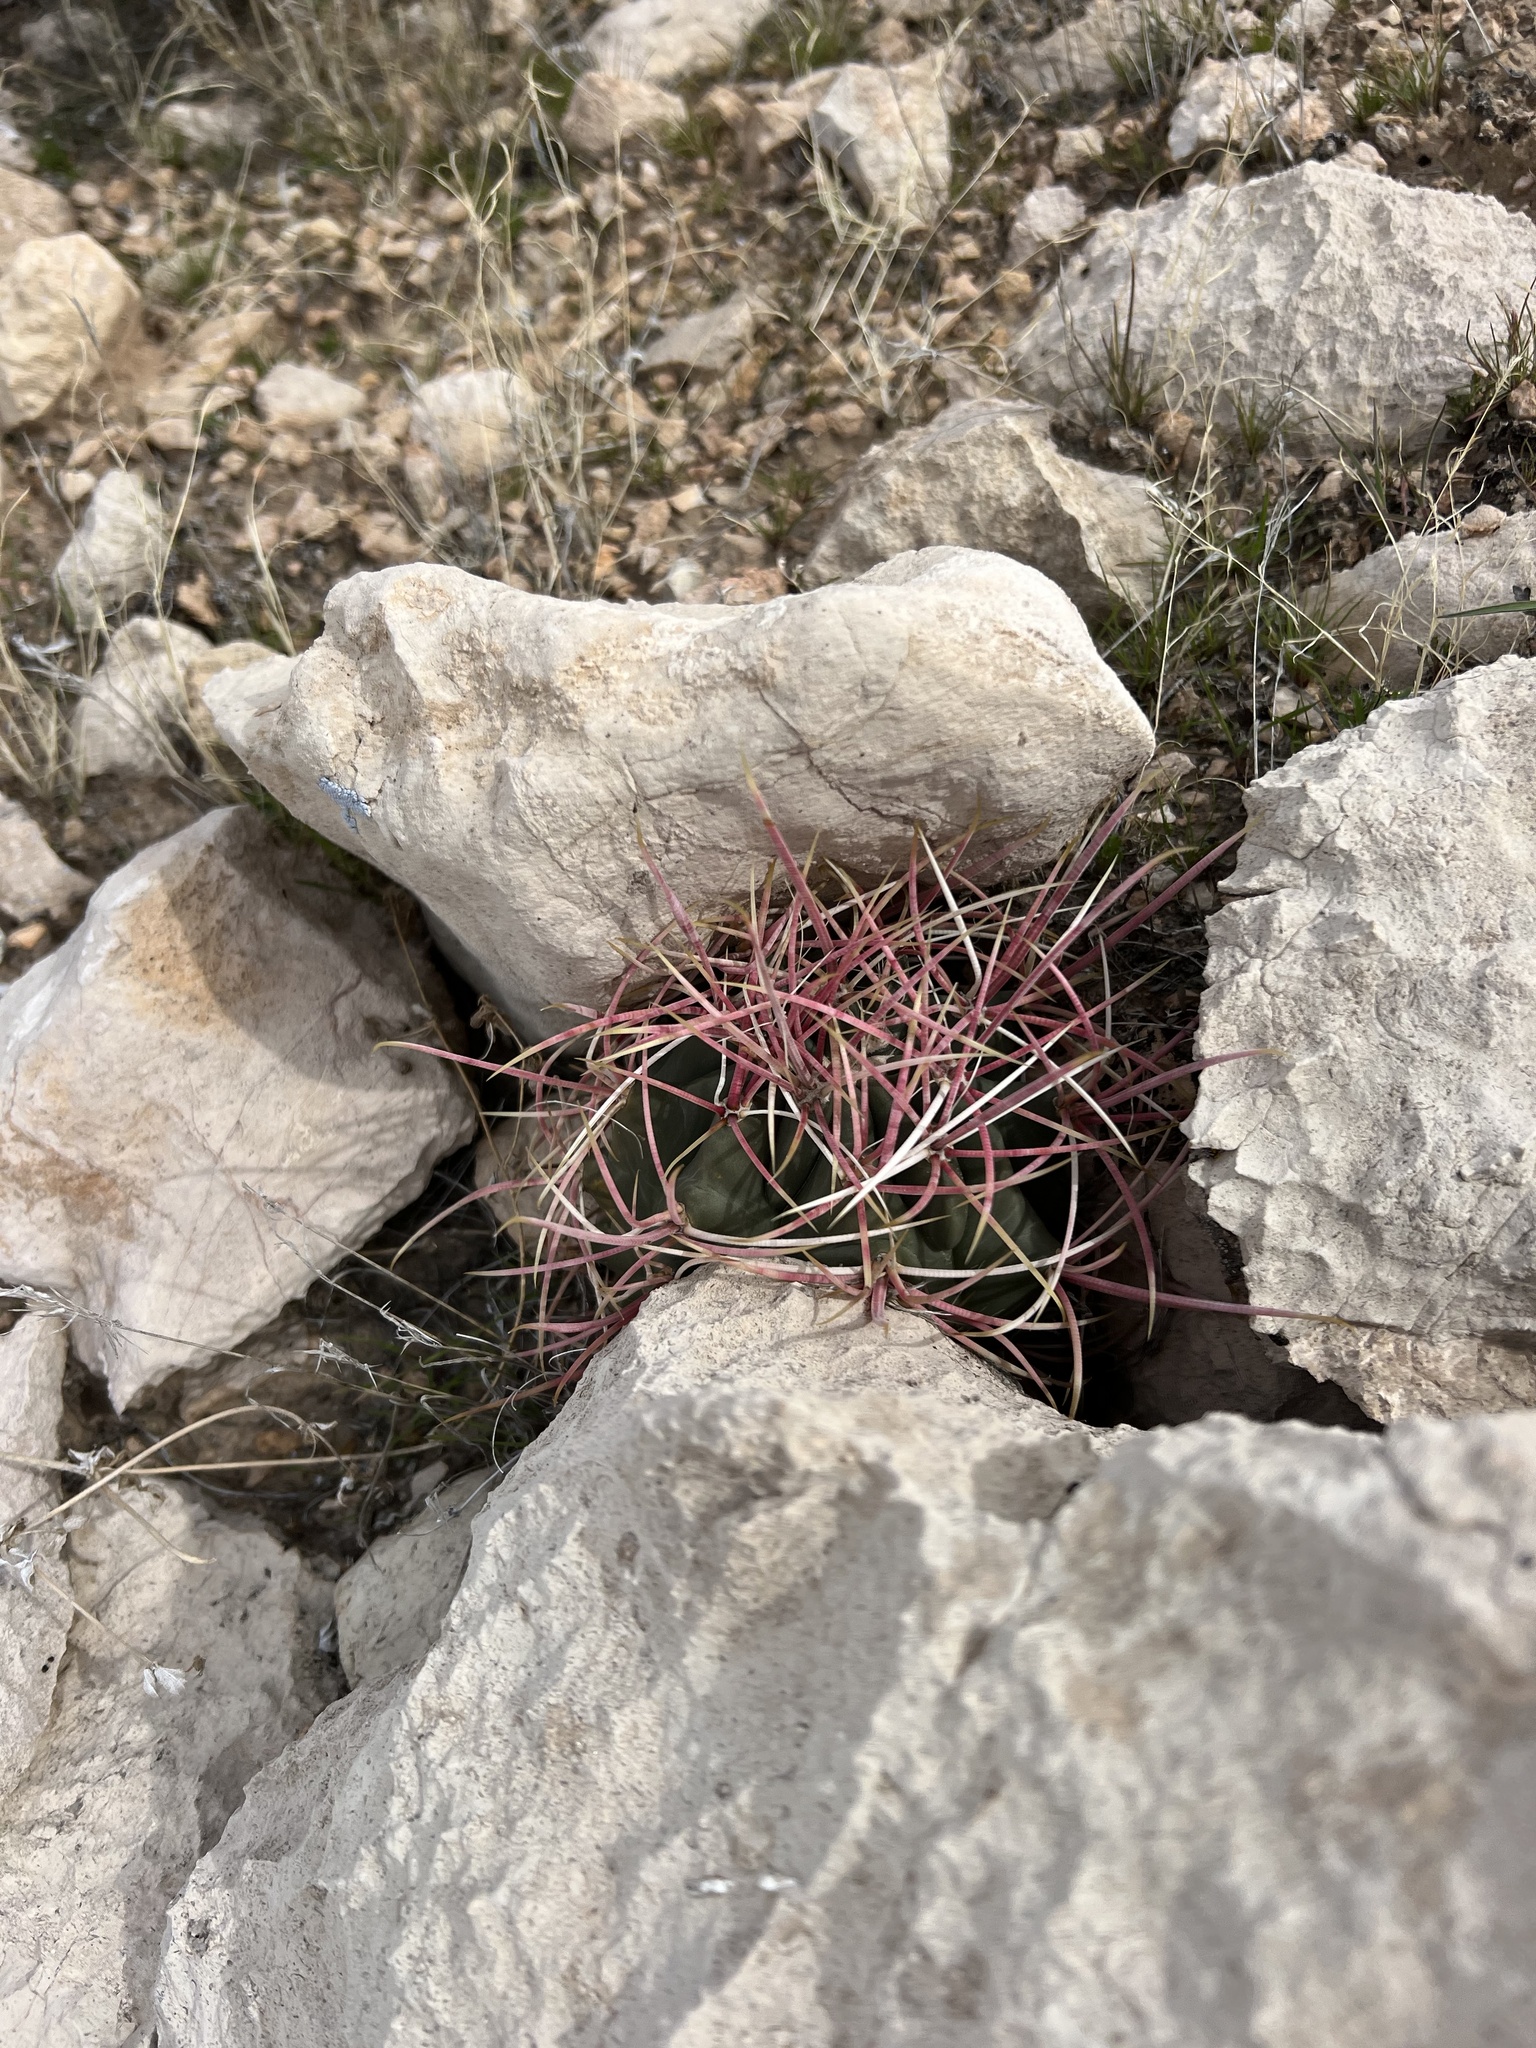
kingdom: Plantae
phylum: Tracheophyta
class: Magnoliopsida
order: Caryophyllales
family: Cactaceae
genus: Ferocactus
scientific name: Ferocactus cylindraceus
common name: California barrel cactus
